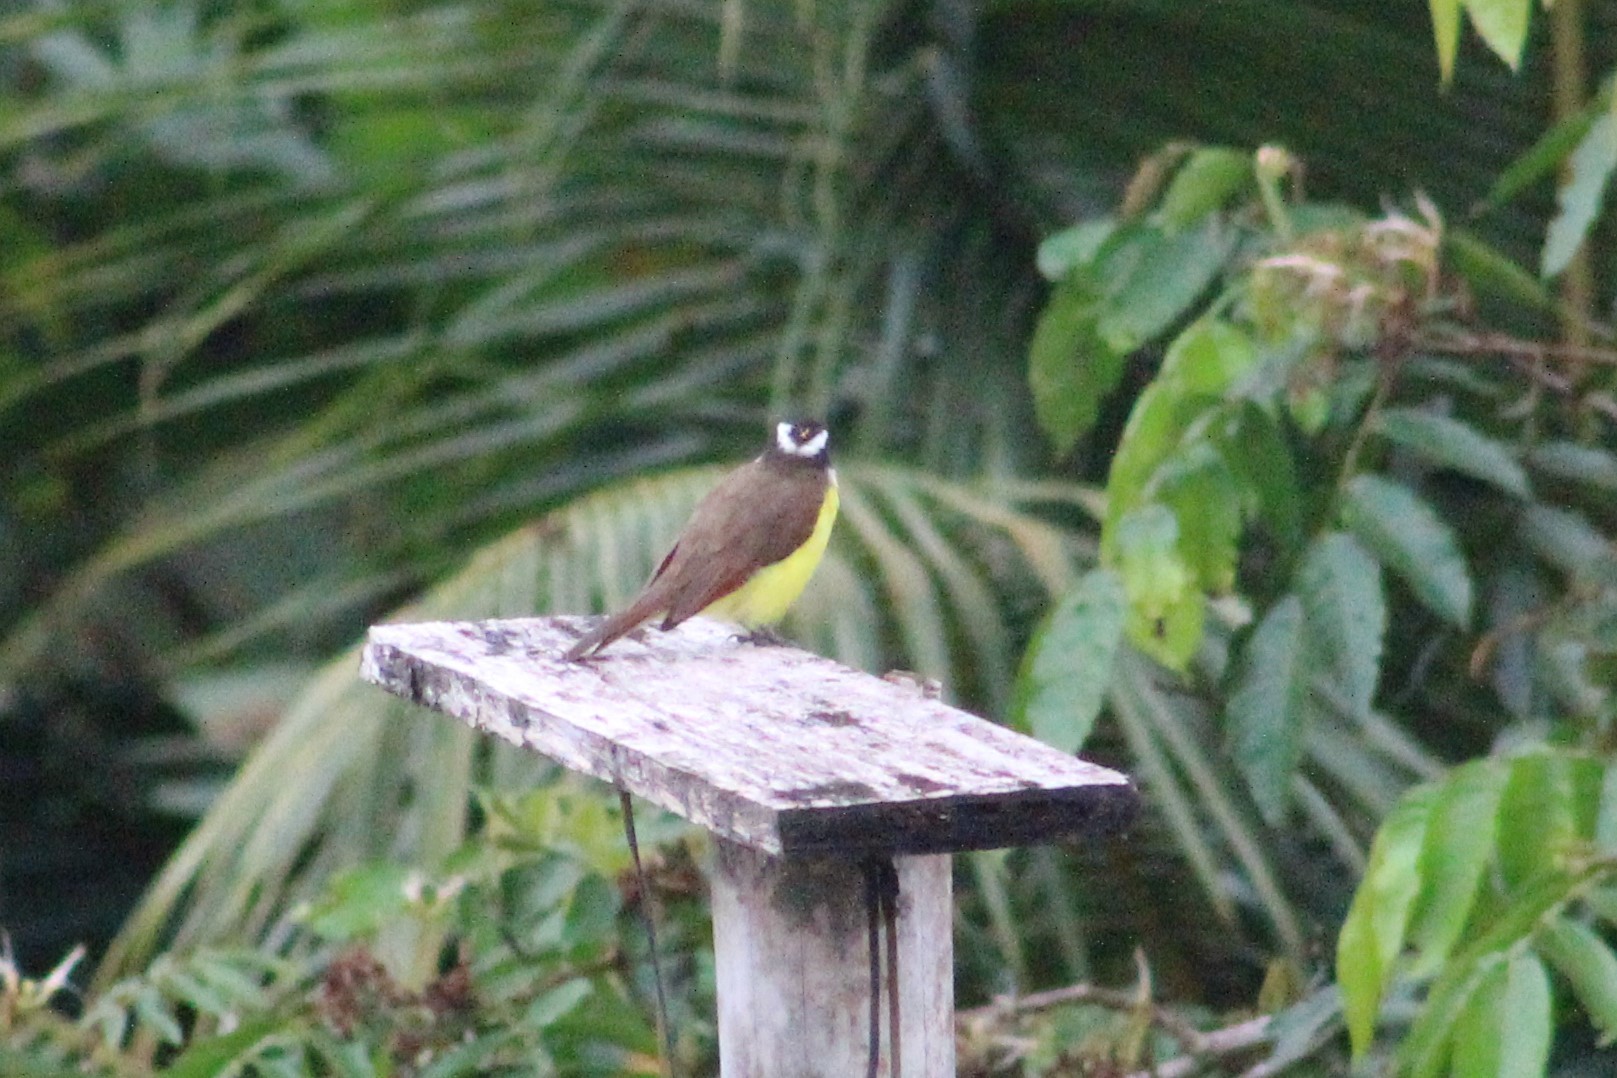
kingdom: Animalia
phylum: Chordata
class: Aves
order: Passeriformes
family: Tyrannidae
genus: Pitangus
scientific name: Pitangus sulphuratus
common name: Great kiskadee
